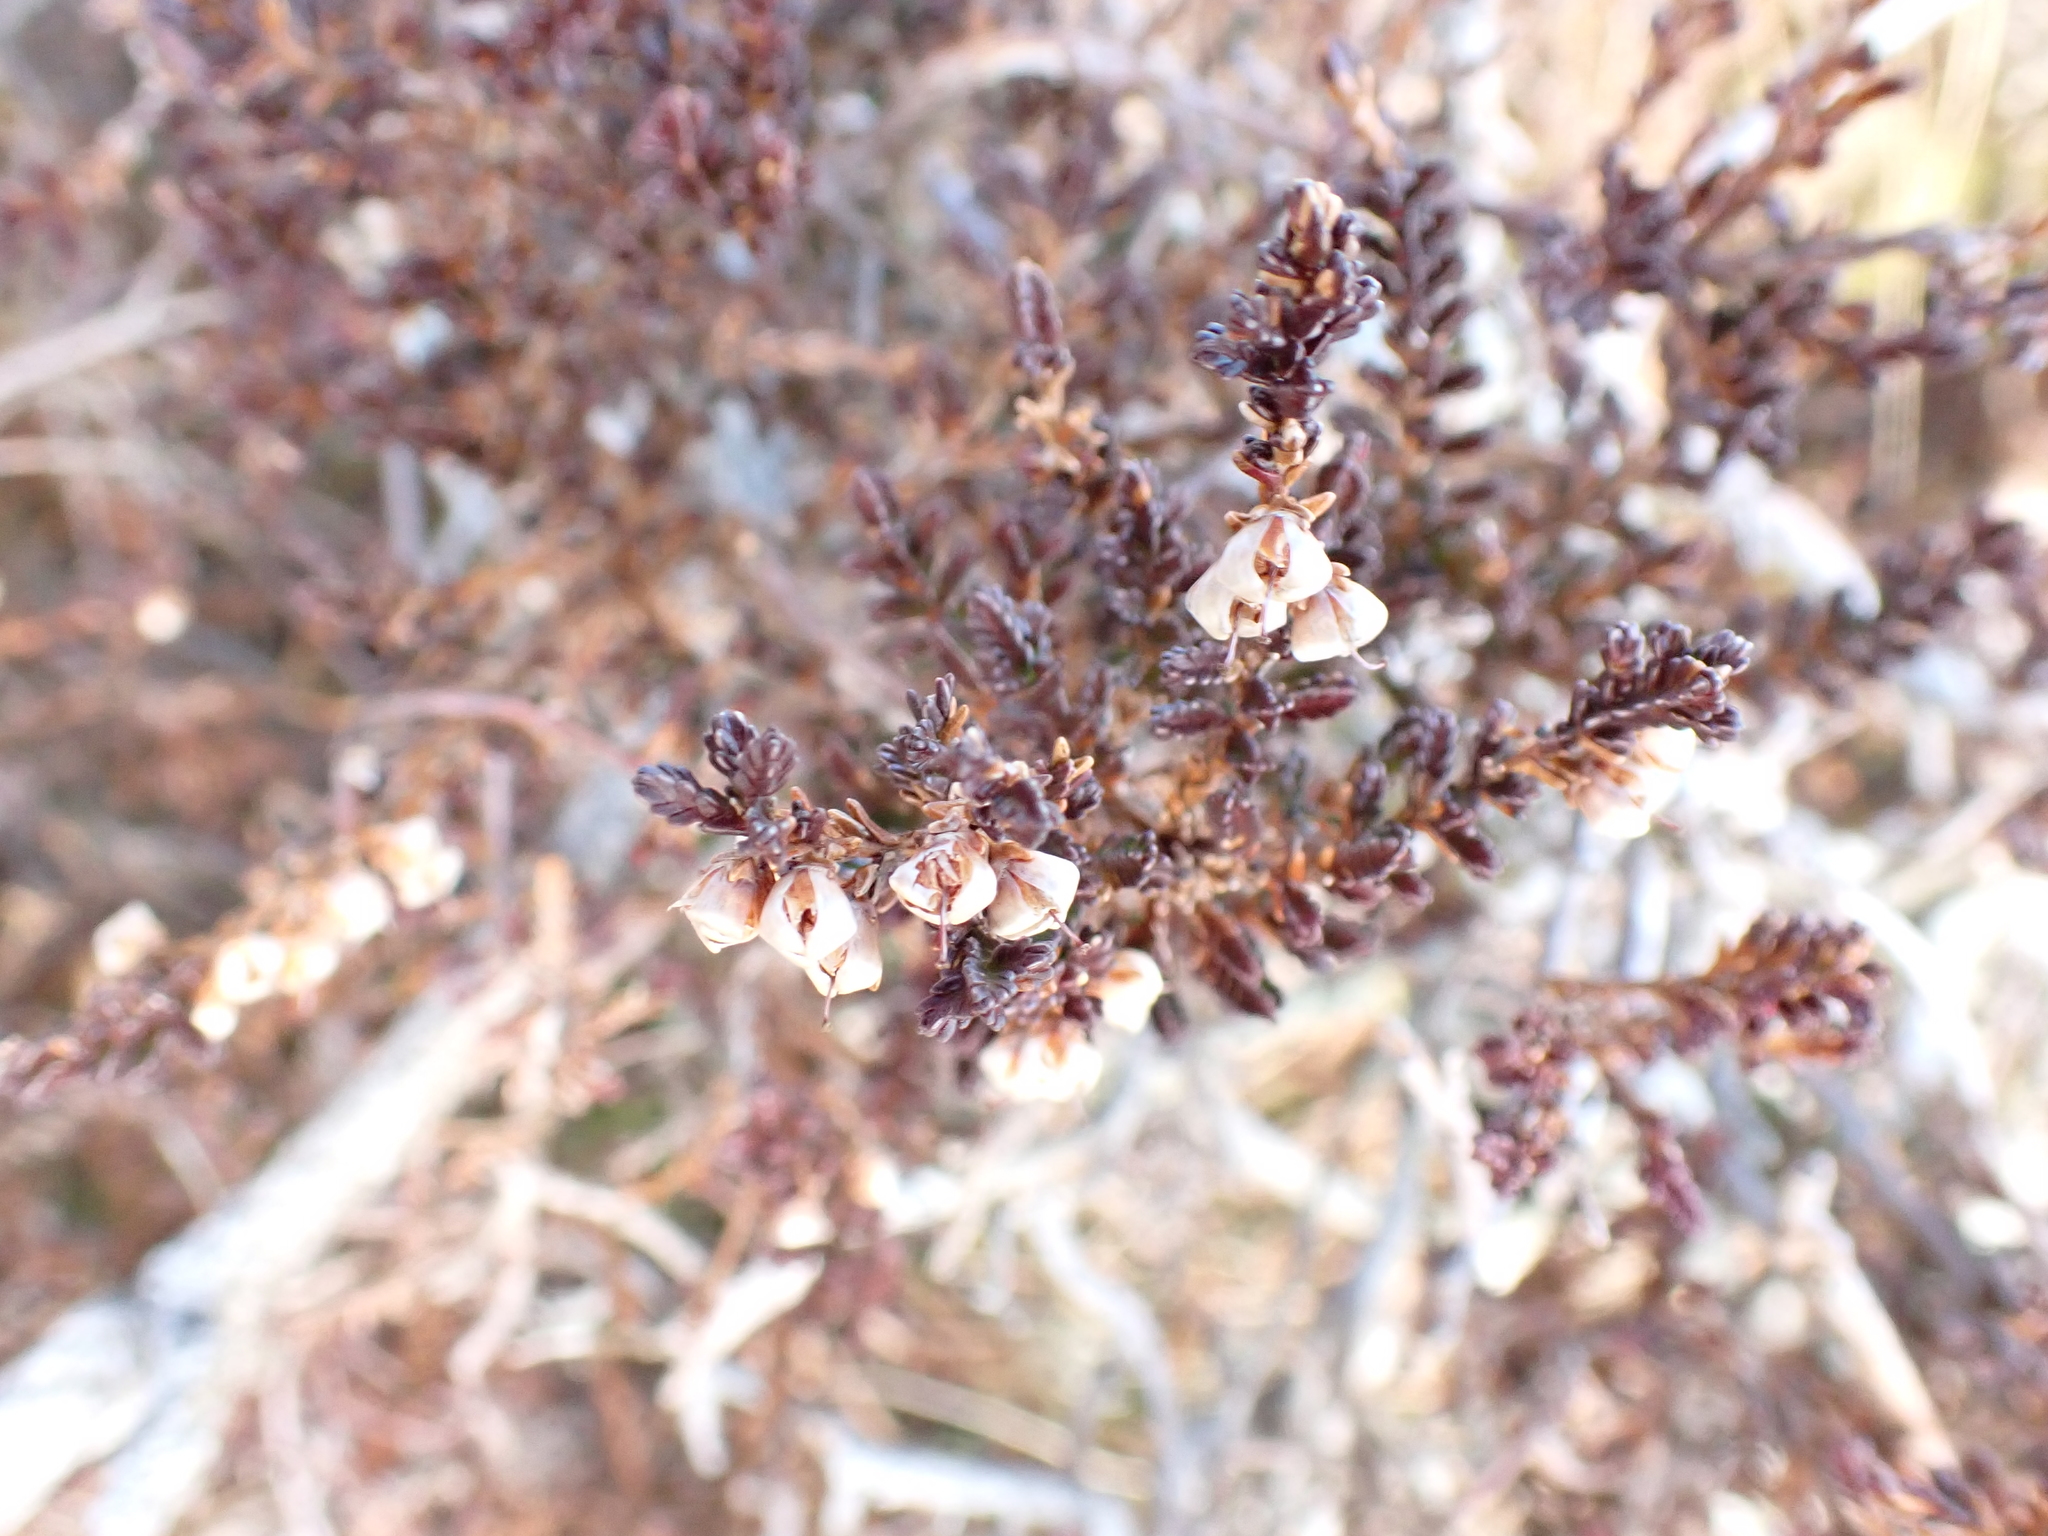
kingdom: Plantae
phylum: Tracheophyta
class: Magnoliopsida
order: Ericales
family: Ericaceae
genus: Calluna
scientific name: Calluna vulgaris
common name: Heather
